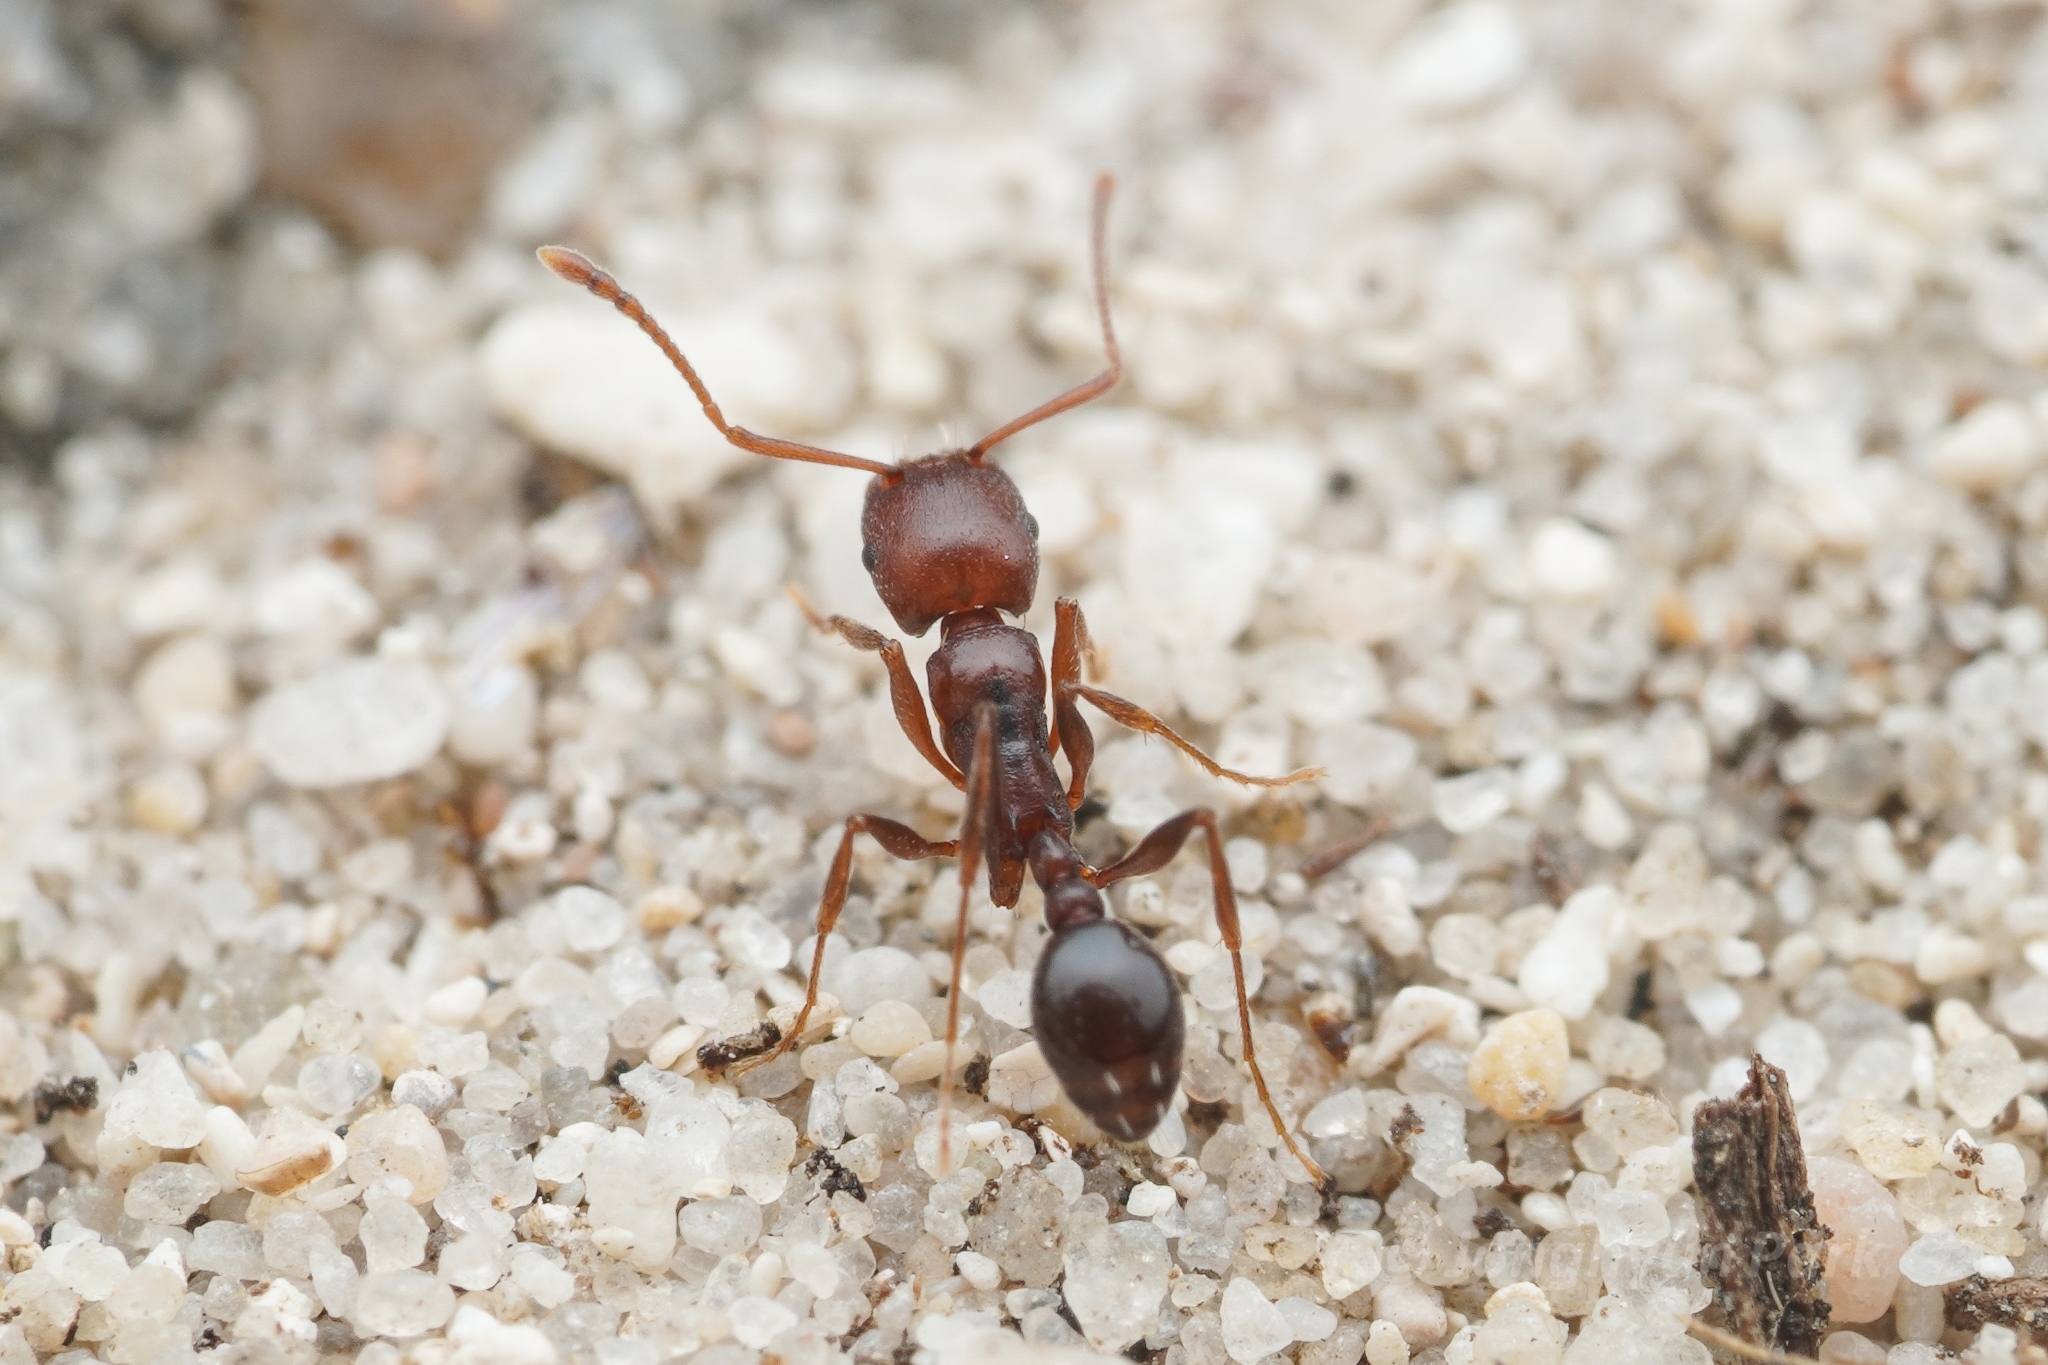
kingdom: Animalia
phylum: Arthropoda
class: Insecta
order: Hymenoptera
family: Formicidae
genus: Tetramorium
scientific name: Tetramorium sericeiventre
